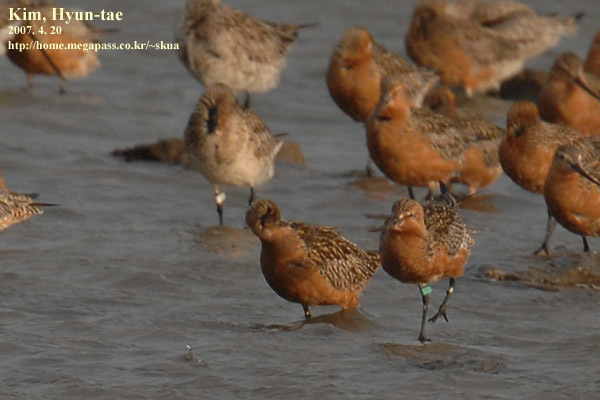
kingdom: Animalia
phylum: Chordata
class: Aves
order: Charadriiformes
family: Scolopacidae
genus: Limosa
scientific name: Limosa lapponica
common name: Bar-tailed godwit
